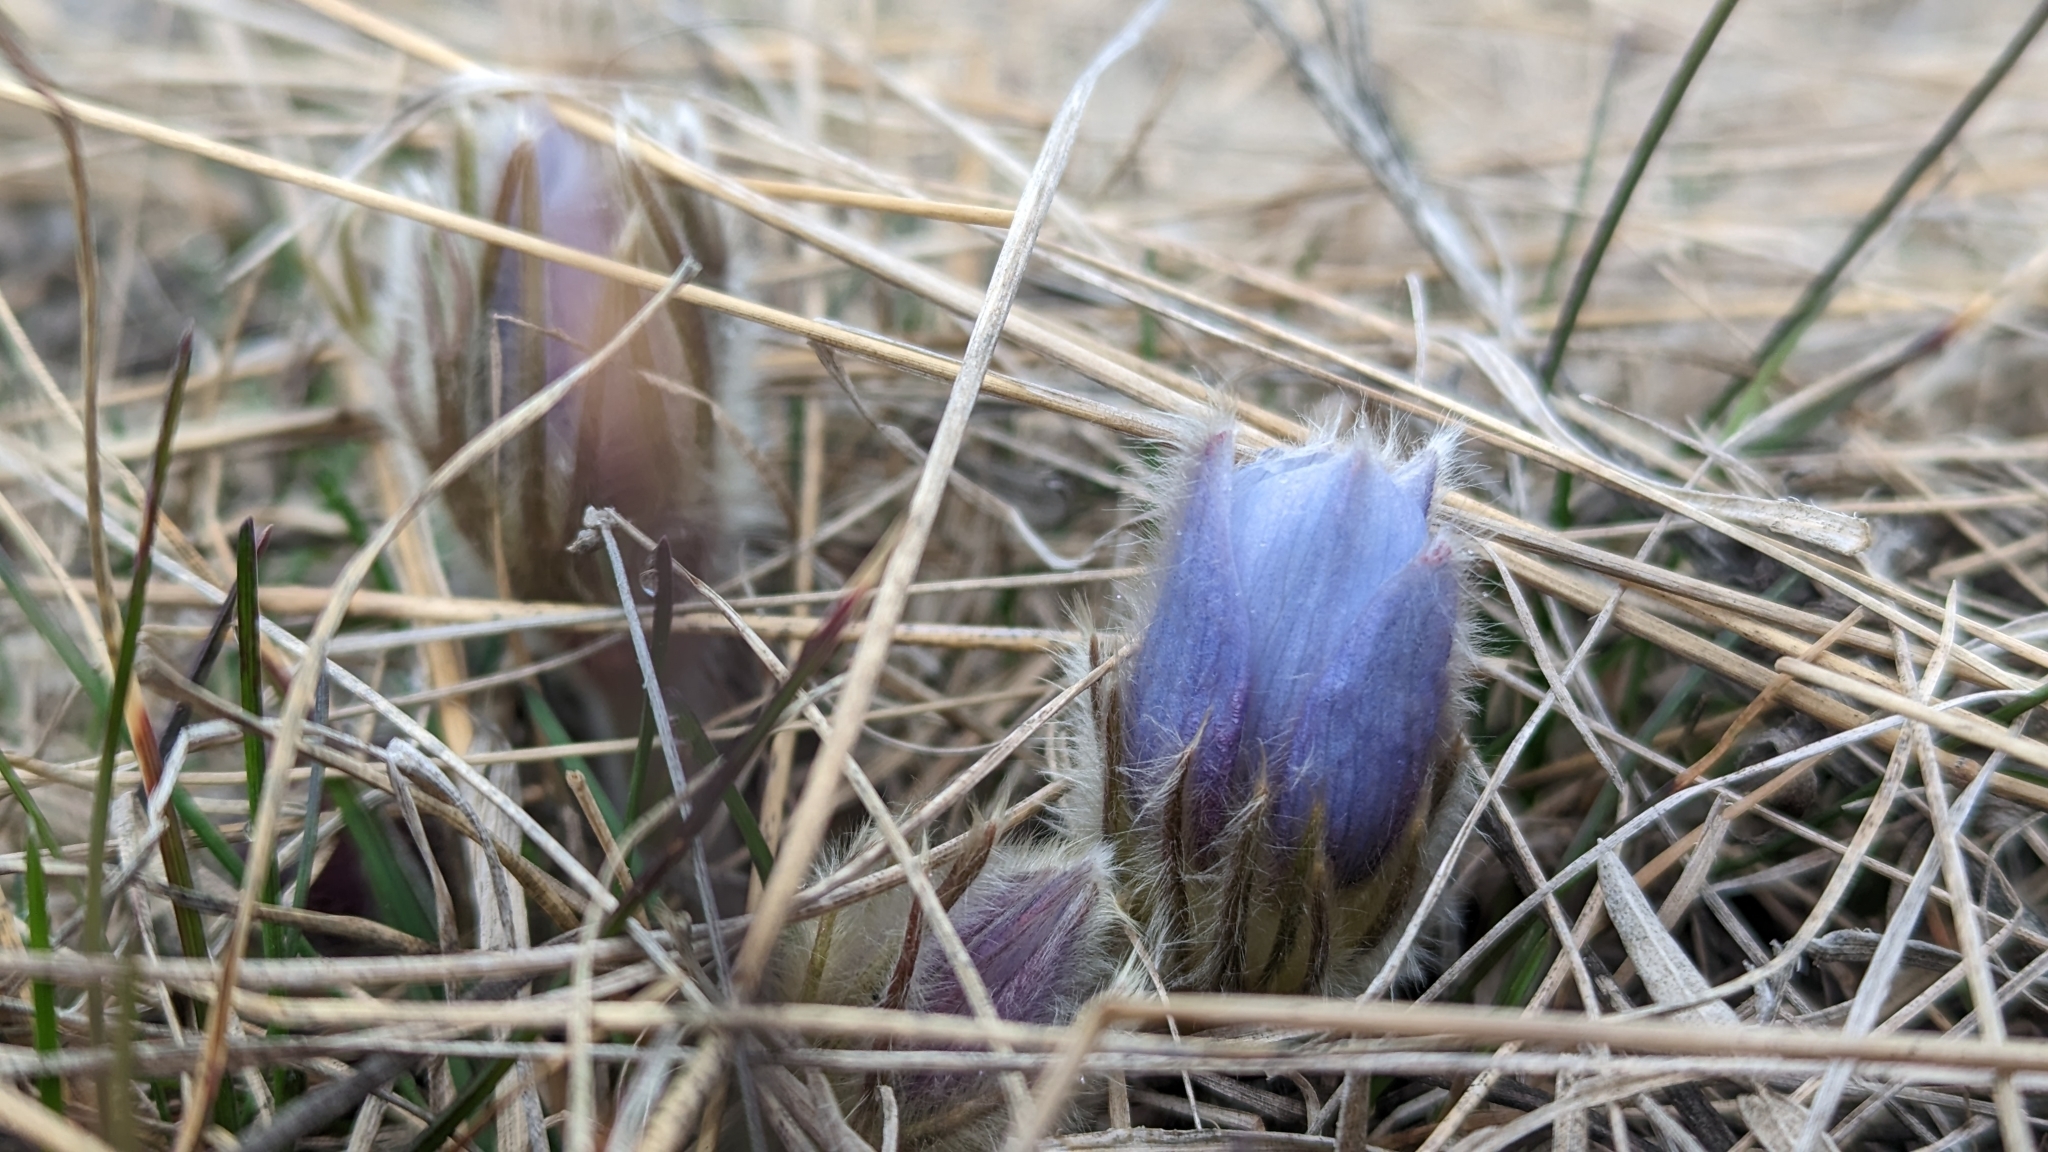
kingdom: Plantae
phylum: Tracheophyta
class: Magnoliopsida
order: Ranunculales
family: Ranunculaceae
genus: Pulsatilla
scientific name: Pulsatilla nuttalliana
